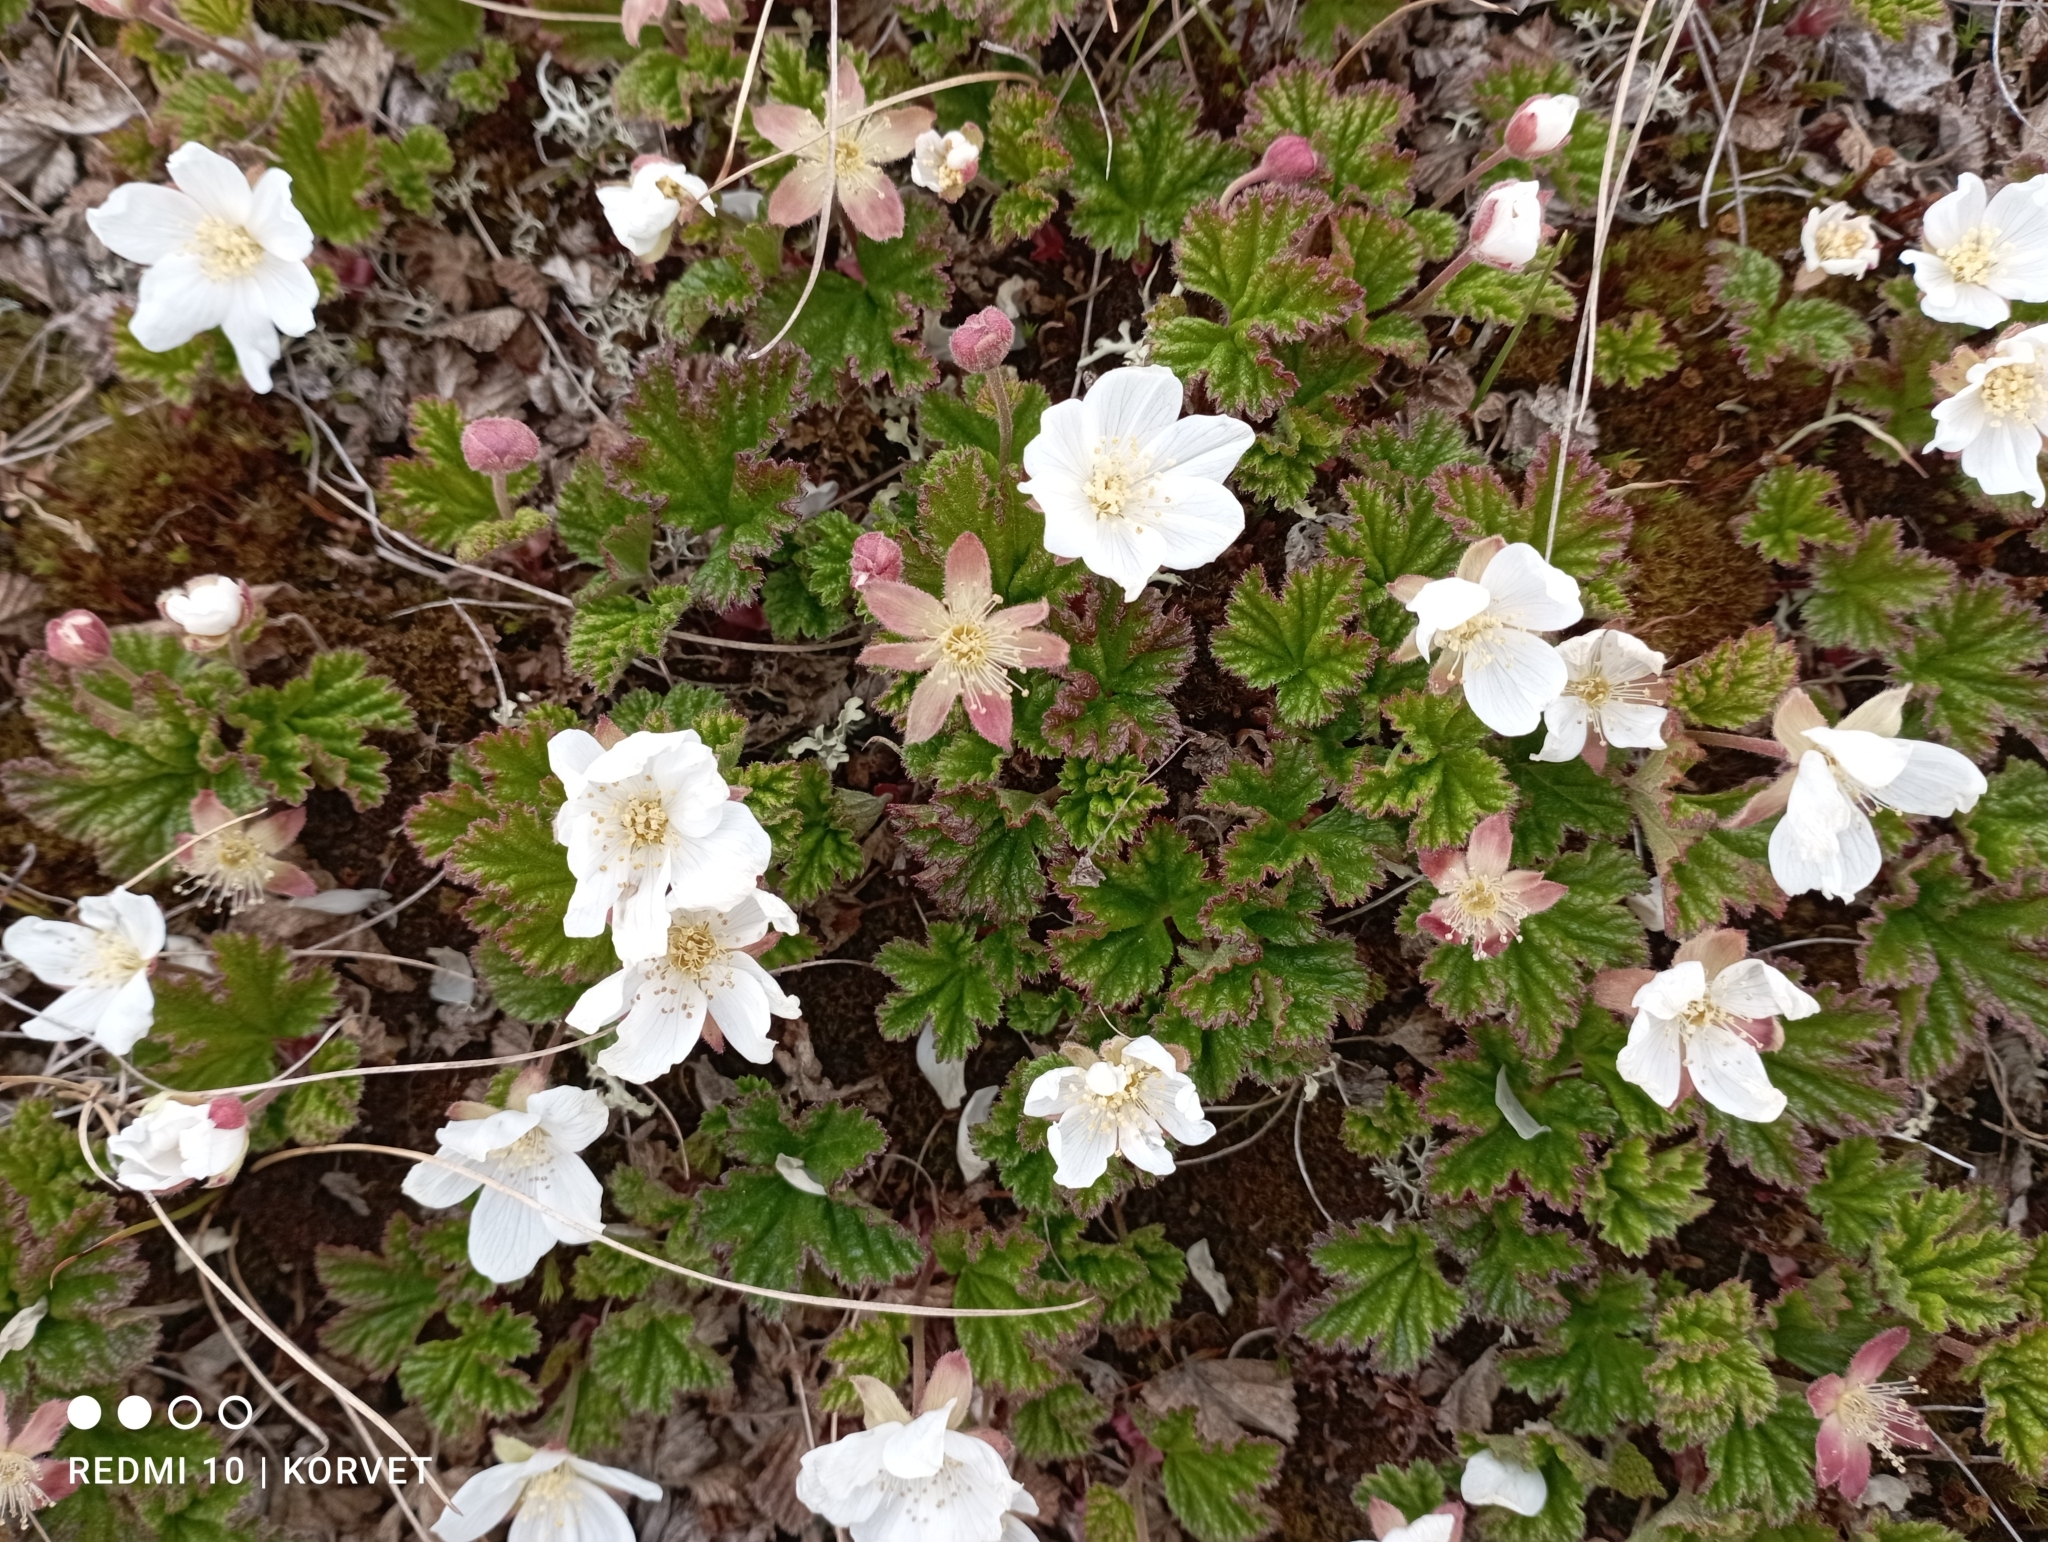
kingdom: Plantae
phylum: Tracheophyta
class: Magnoliopsida
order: Rosales
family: Rosaceae
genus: Rubus
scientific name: Rubus chamaemorus
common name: Cloudberry
